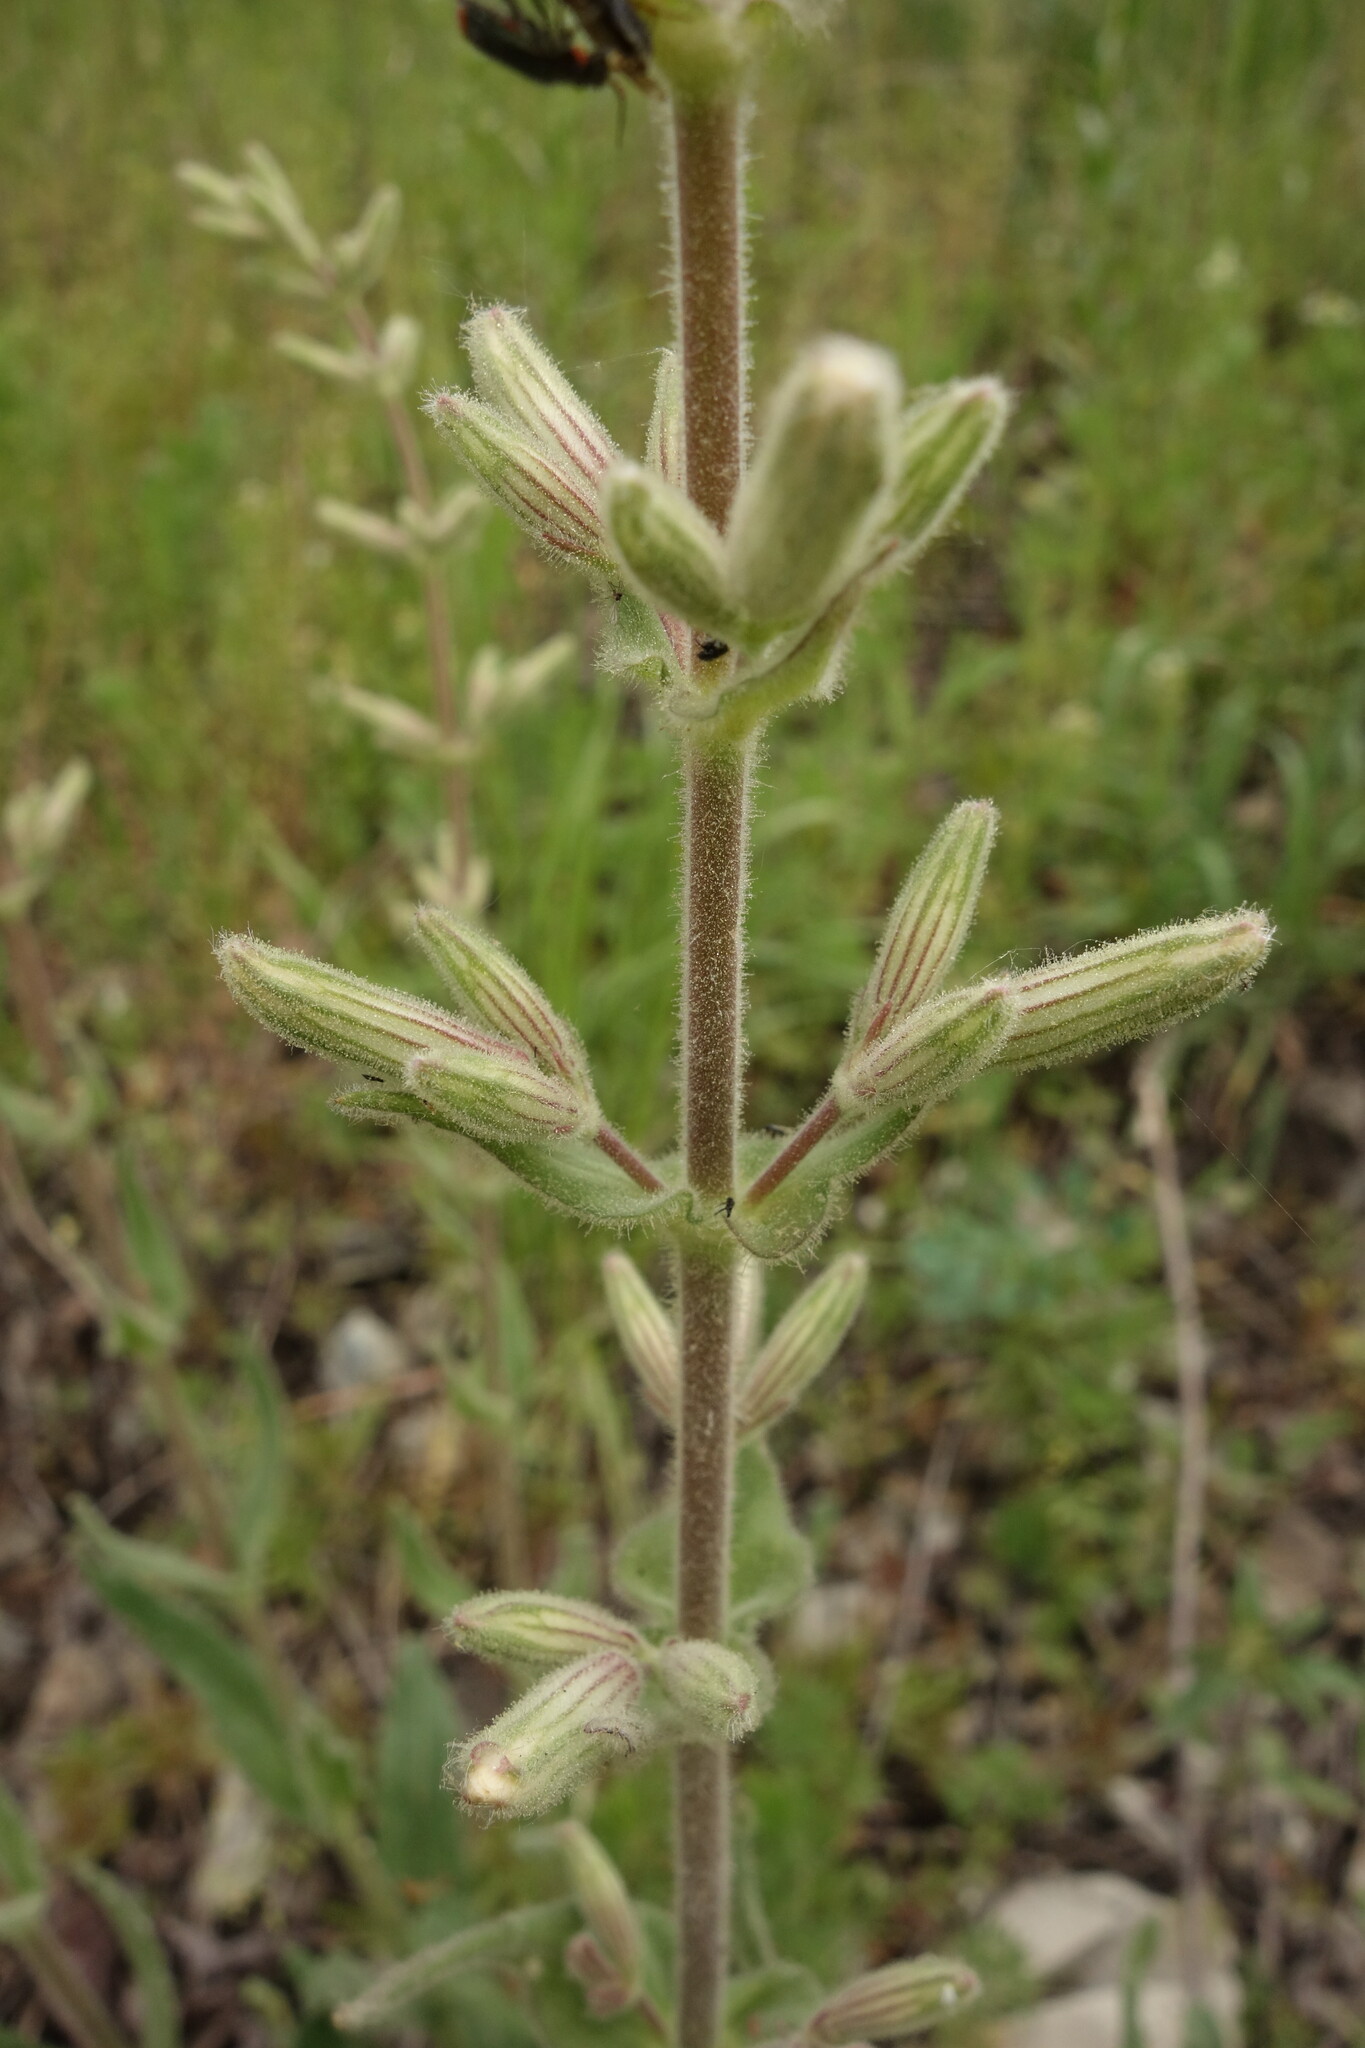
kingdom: Plantae
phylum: Tracheophyta
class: Magnoliopsida
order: Caryophyllales
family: Caryophyllaceae
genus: Silene
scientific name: Silene viscosa
